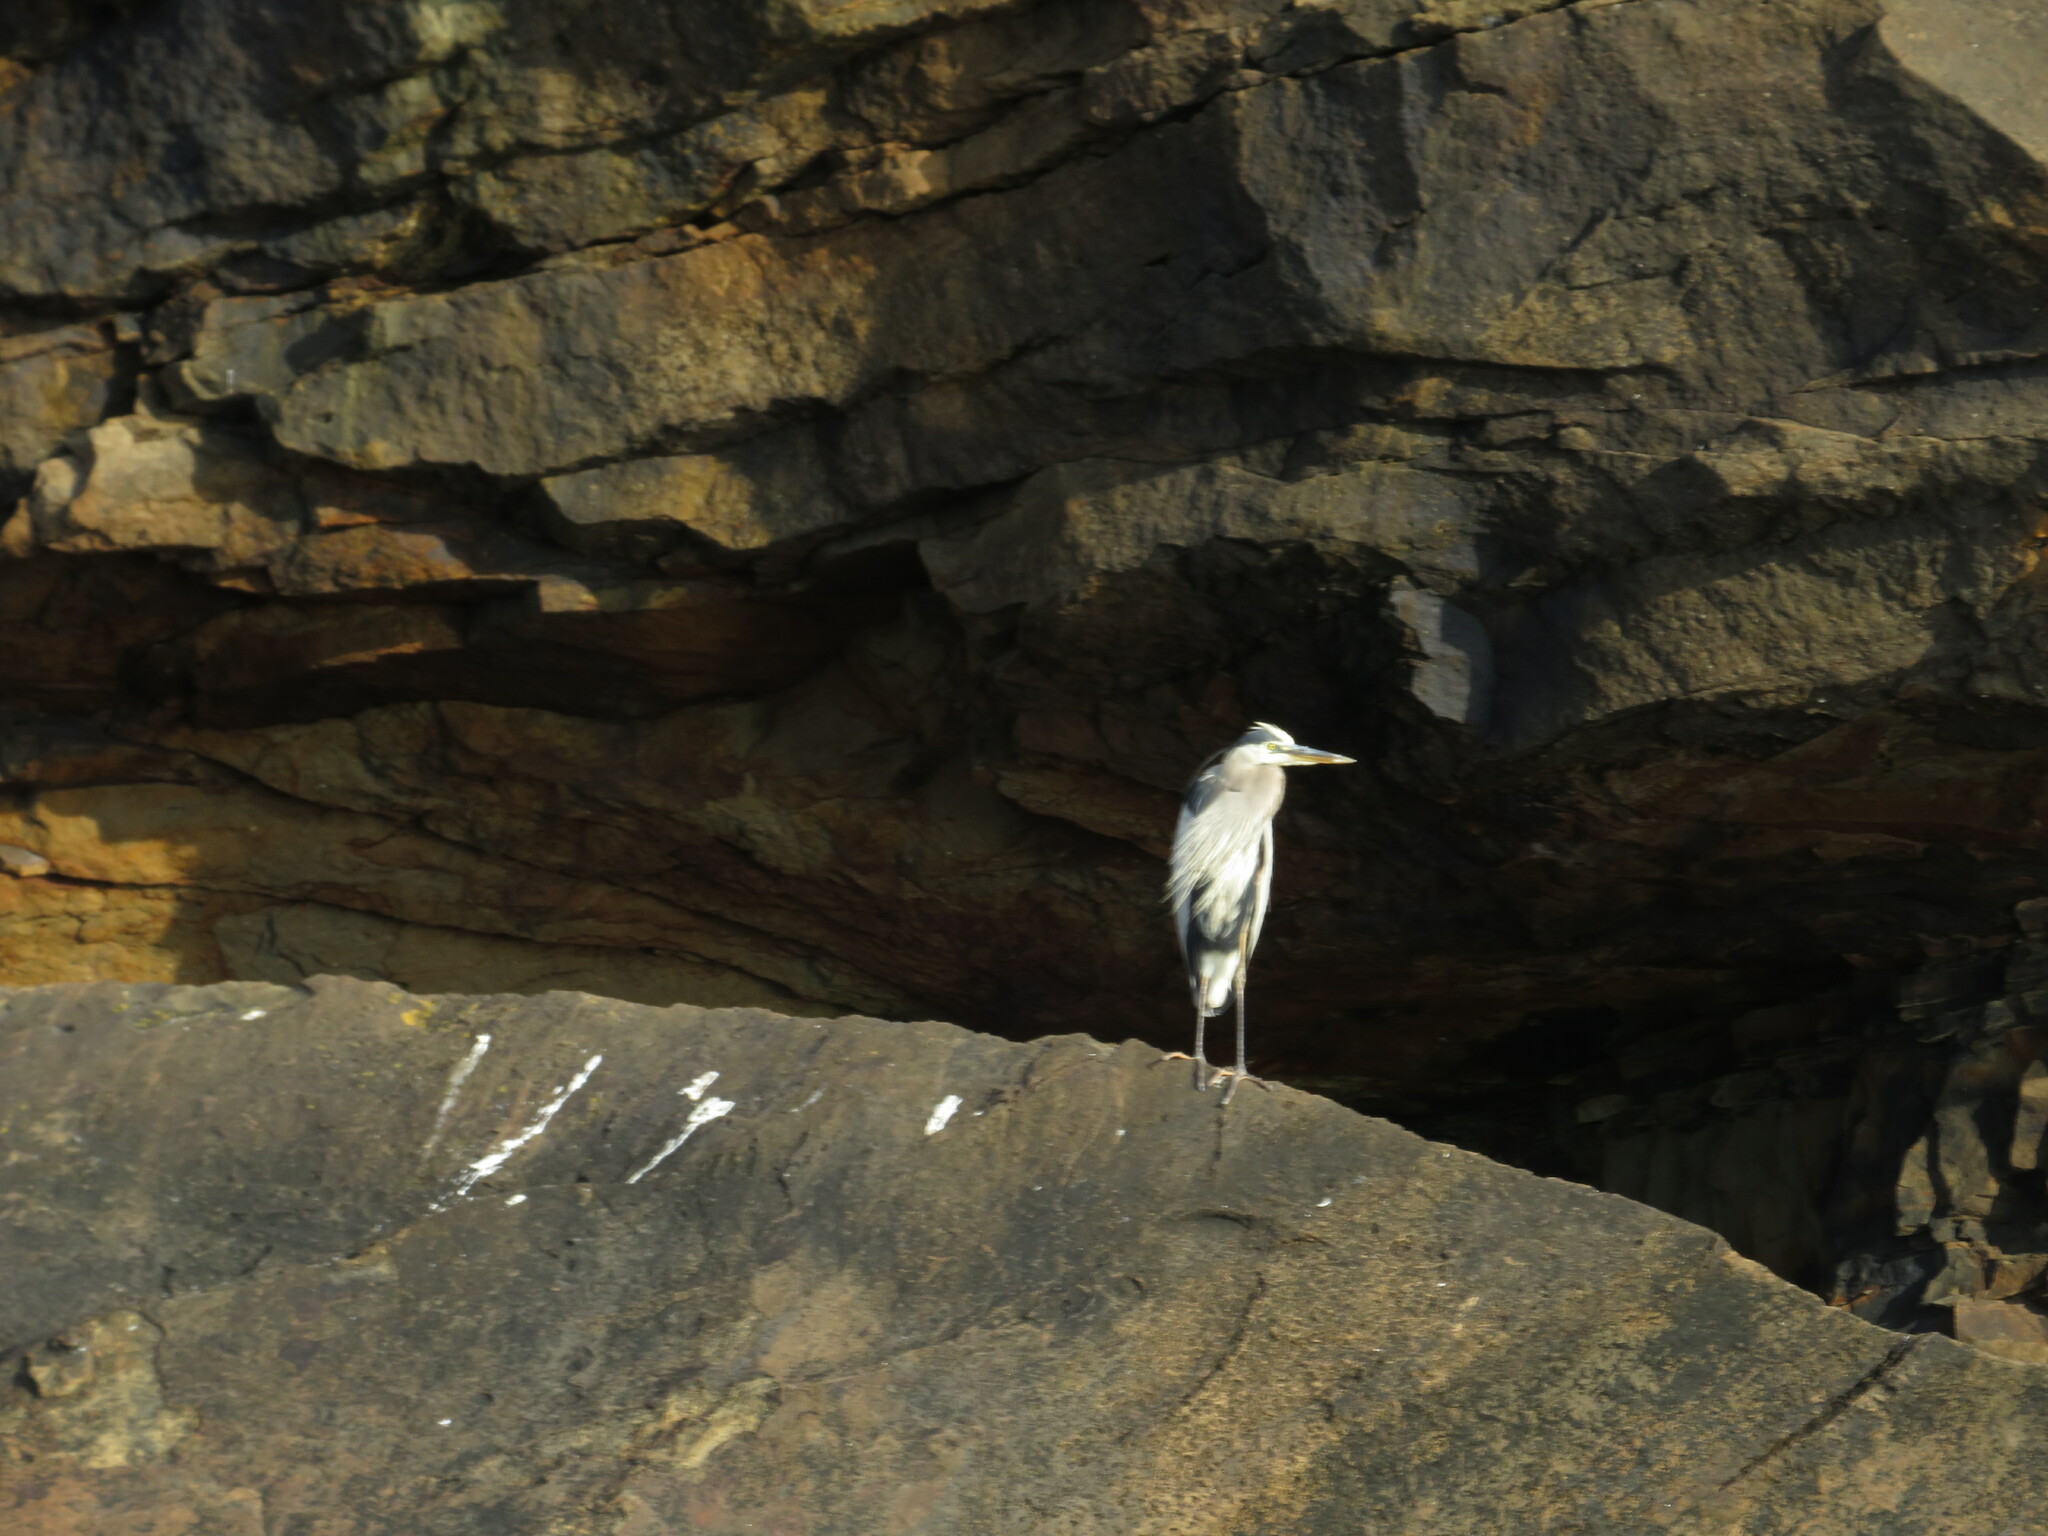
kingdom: Animalia
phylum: Chordata
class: Aves
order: Pelecaniformes
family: Ardeidae
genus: Ardea
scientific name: Ardea herodias
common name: Great blue heron
